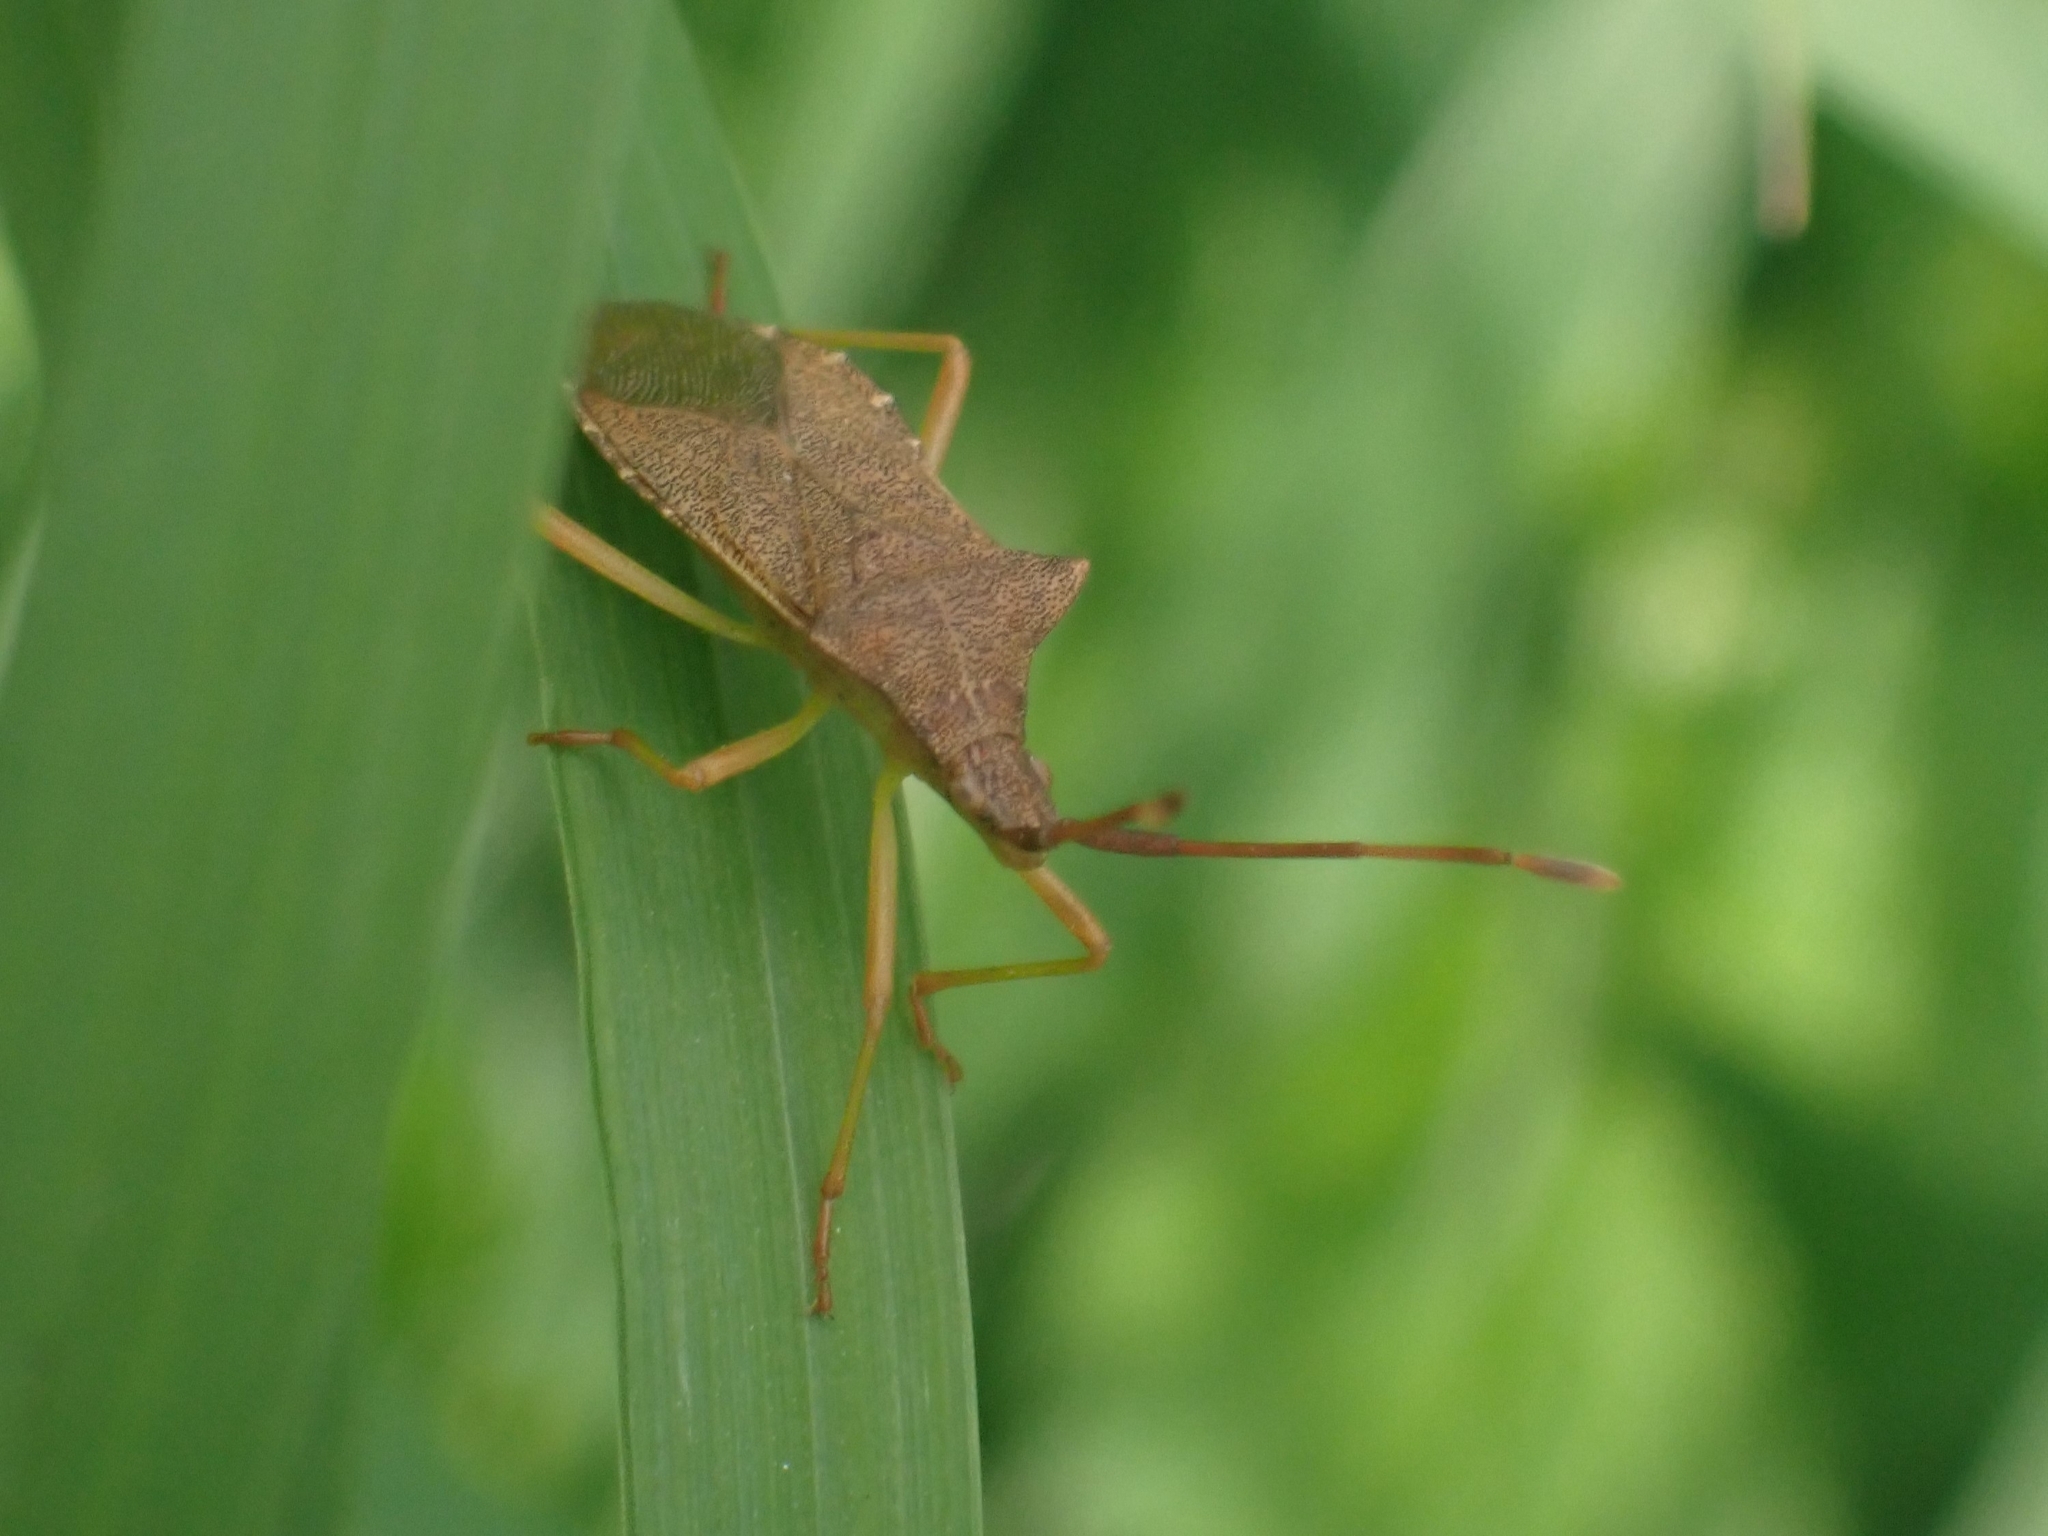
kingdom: Animalia
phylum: Arthropoda
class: Insecta
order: Hemiptera
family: Coreidae
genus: Gonocerus
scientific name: Gonocerus acuteangulatus
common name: Box bug
